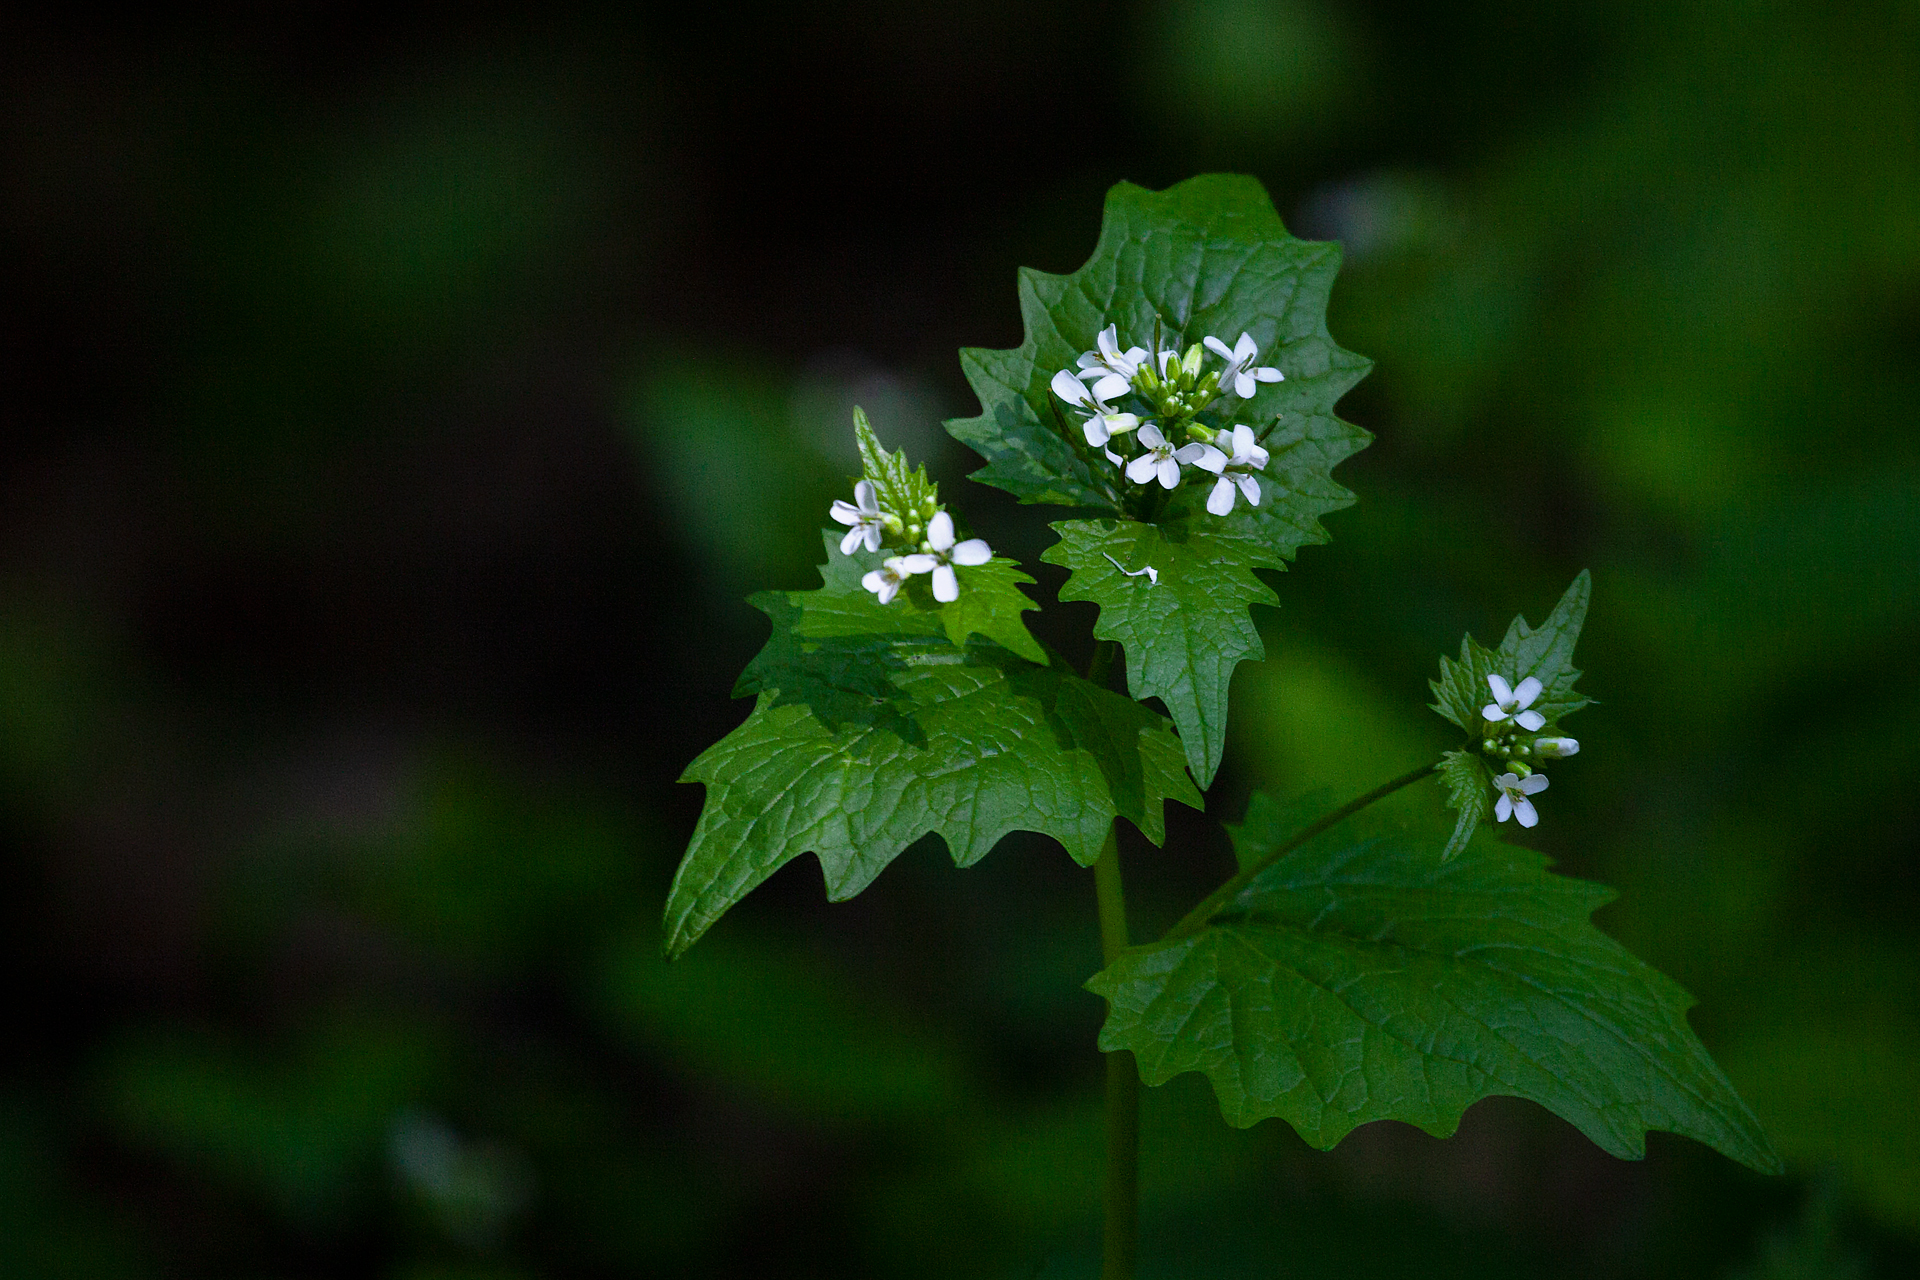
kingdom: Plantae
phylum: Tracheophyta
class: Magnoliopsida
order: Brassicales
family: Brassicaceae
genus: Alliaria
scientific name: Alliaria petiolata
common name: Garlic mustard
